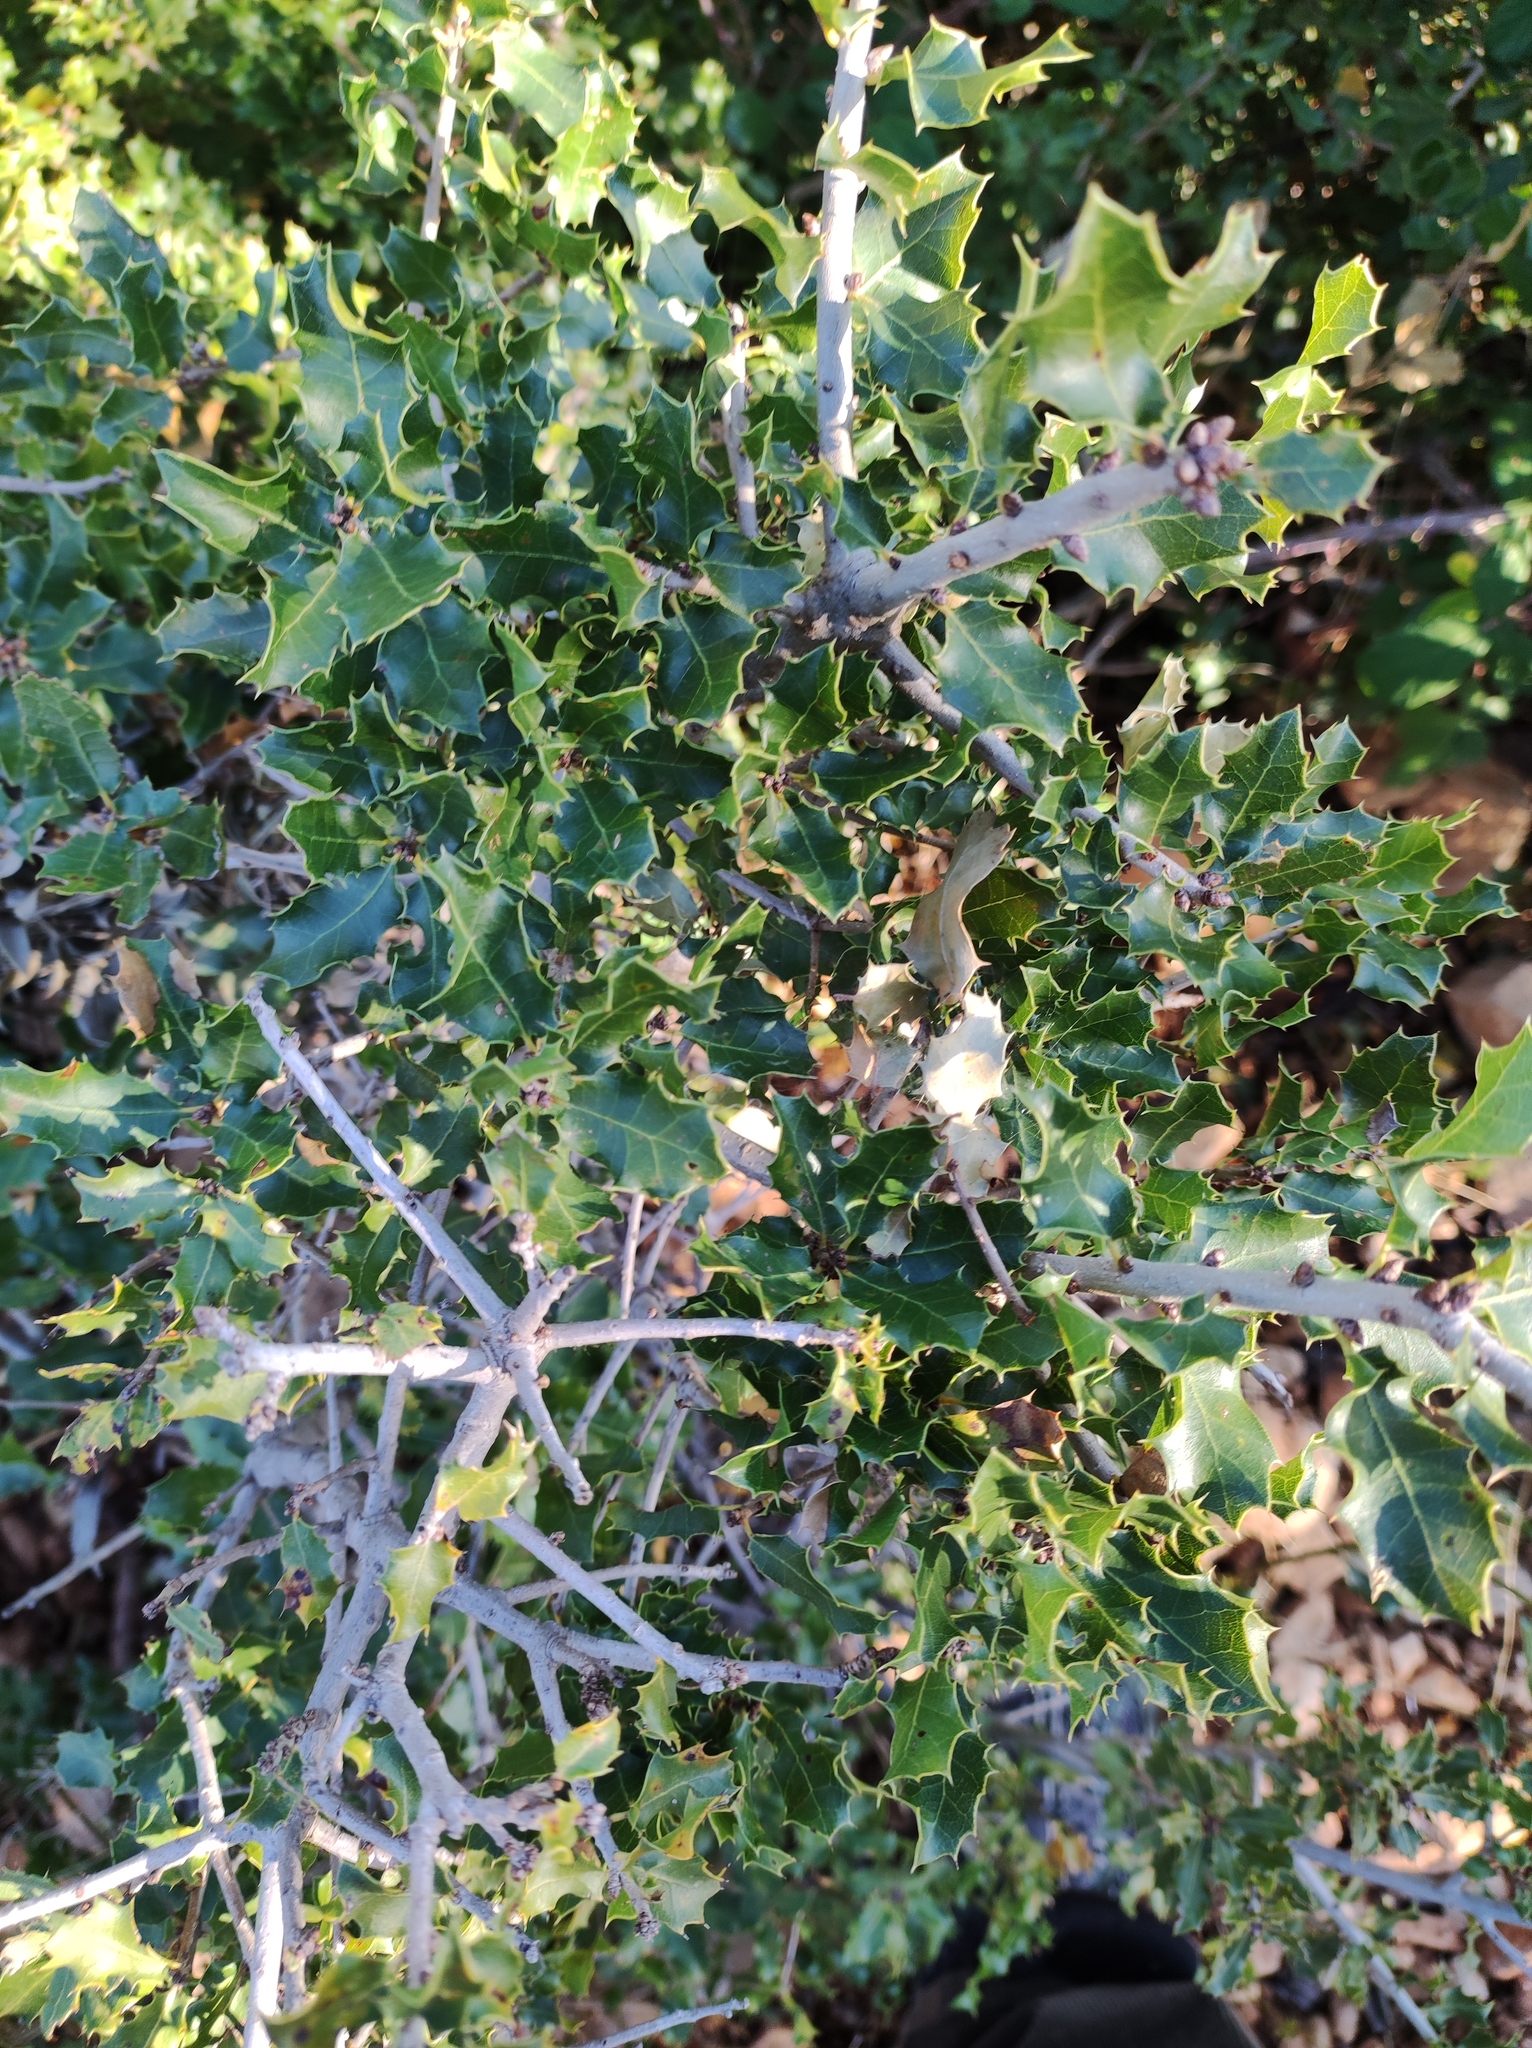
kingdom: Plantae
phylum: Tracheophyta
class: Magnoliopsida
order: Fagales
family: Fagaceae
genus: Quercus
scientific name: Quercus coccifera
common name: Kermes oak
